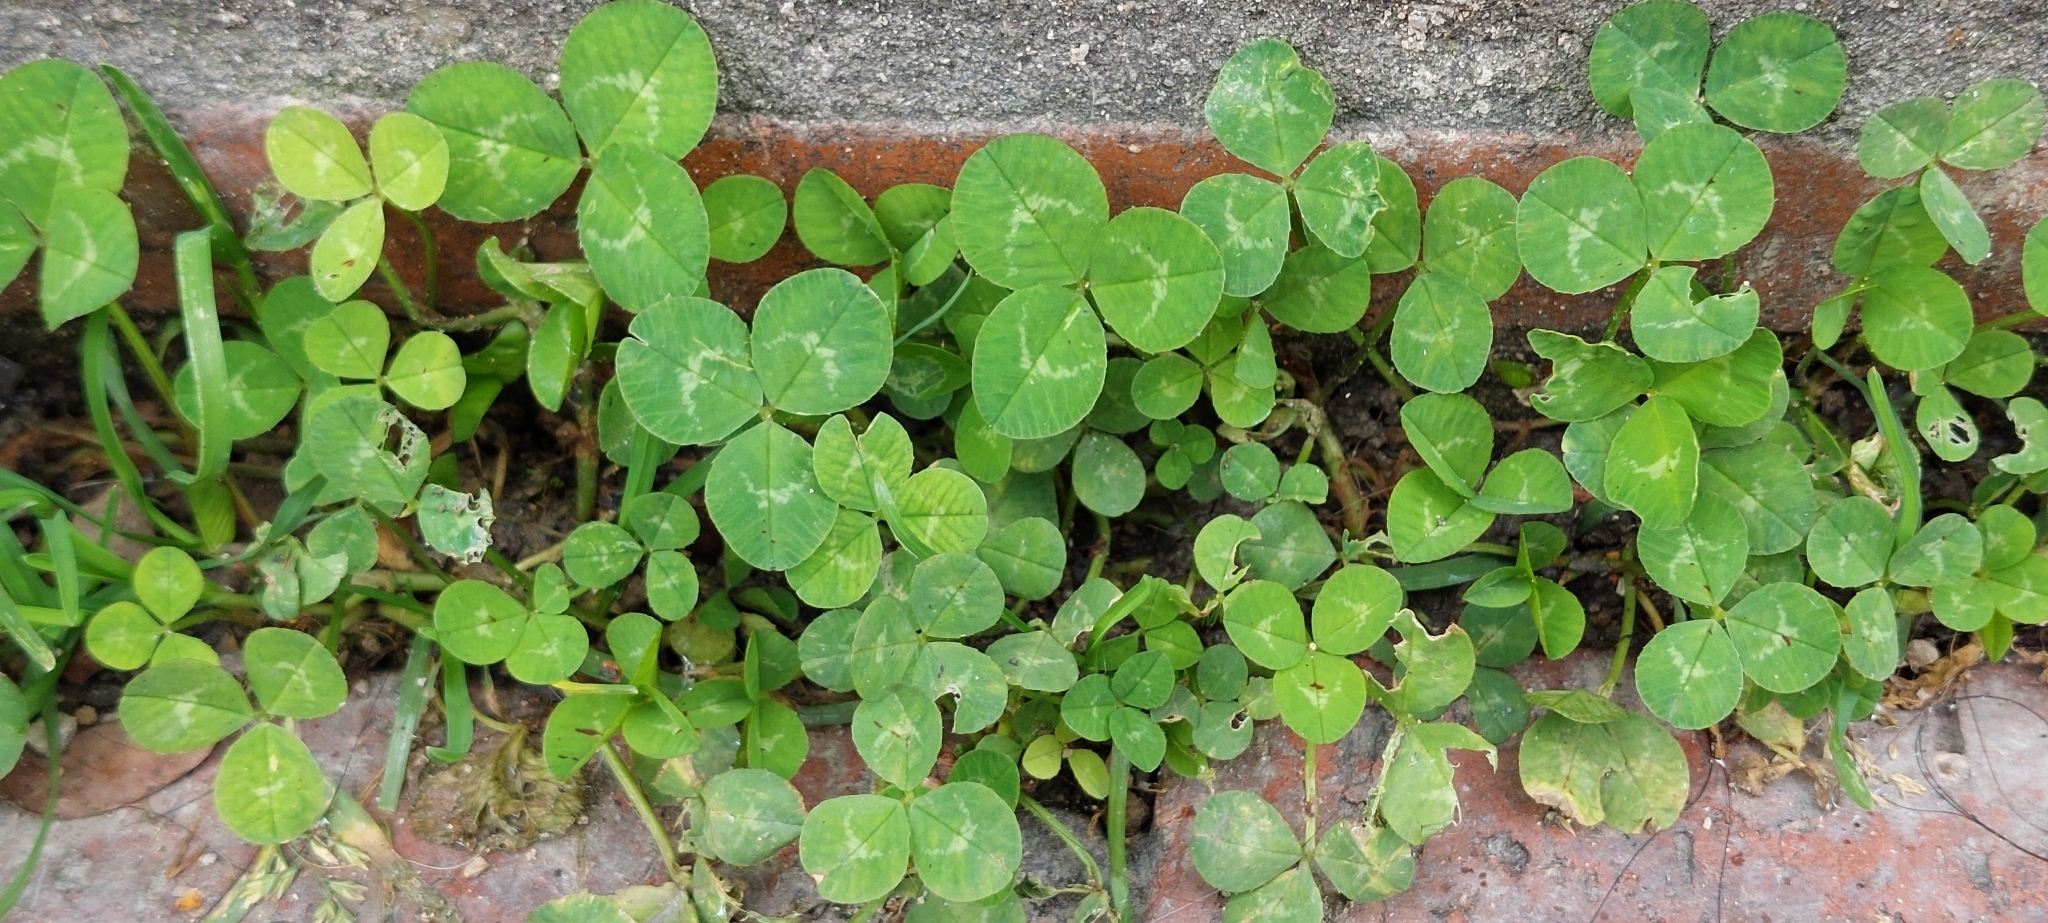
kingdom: Plantae
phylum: Tracheophyta
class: Magnoliopsida
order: Fabales
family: Fabaceae
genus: Trifolium
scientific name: Trifolium repens
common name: White clover
